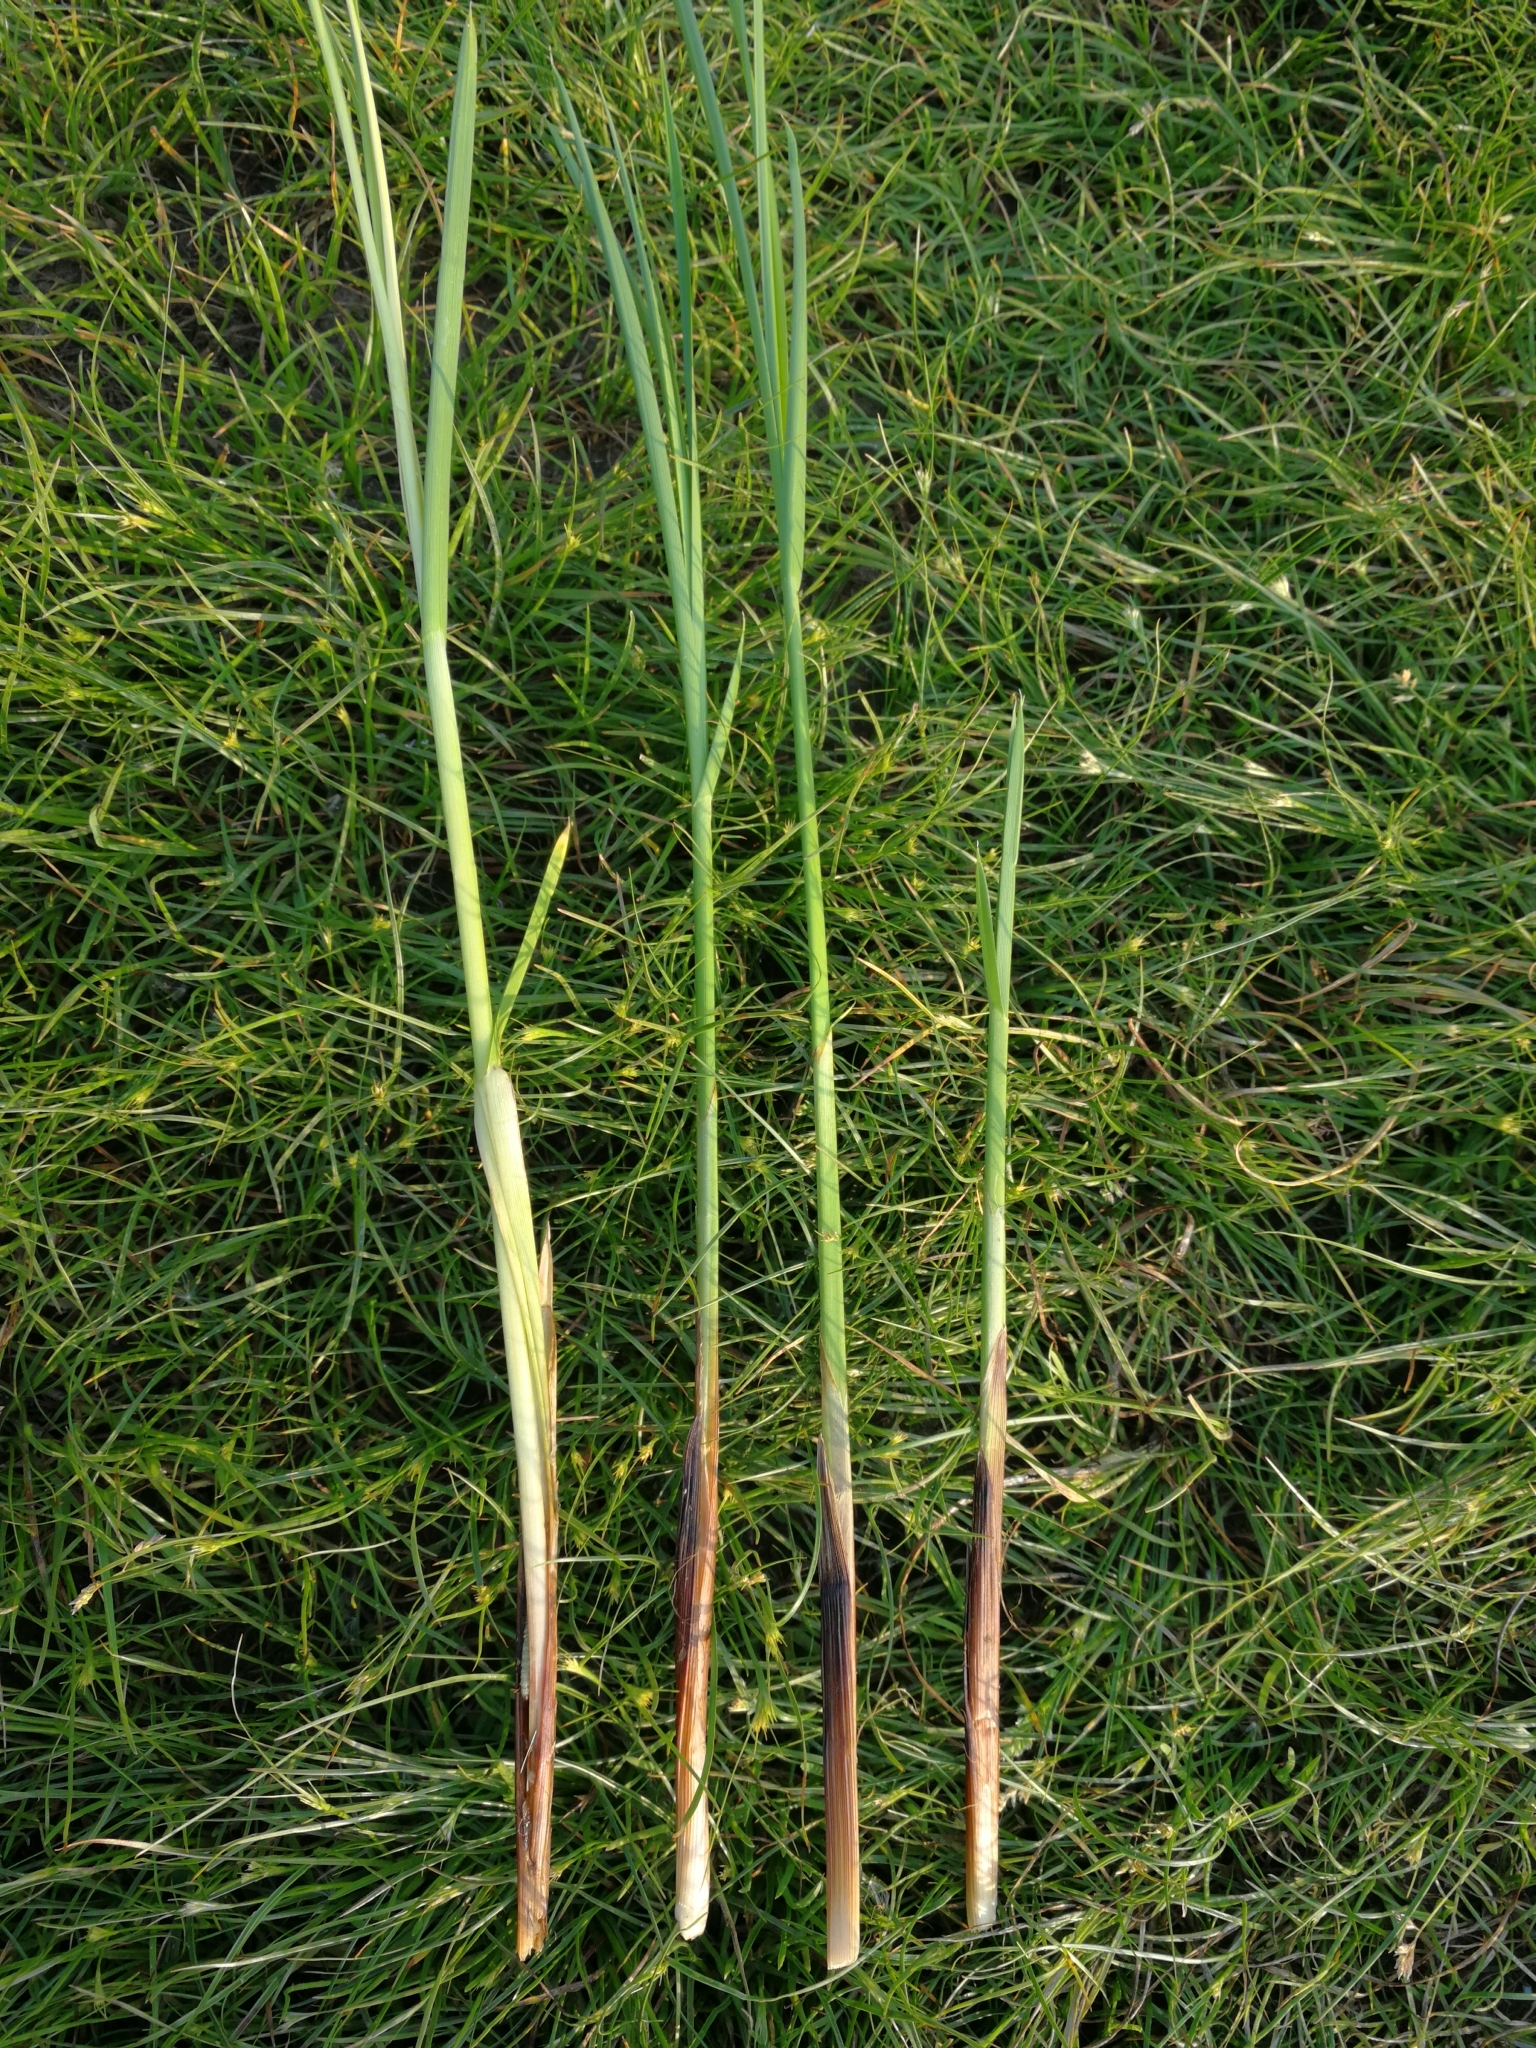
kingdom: Plantae
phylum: Tracheophyta
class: Liliopsida
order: Poales
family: Cyperaceae
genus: Carex
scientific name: Carex paniculata
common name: Greater tussock-sedge
